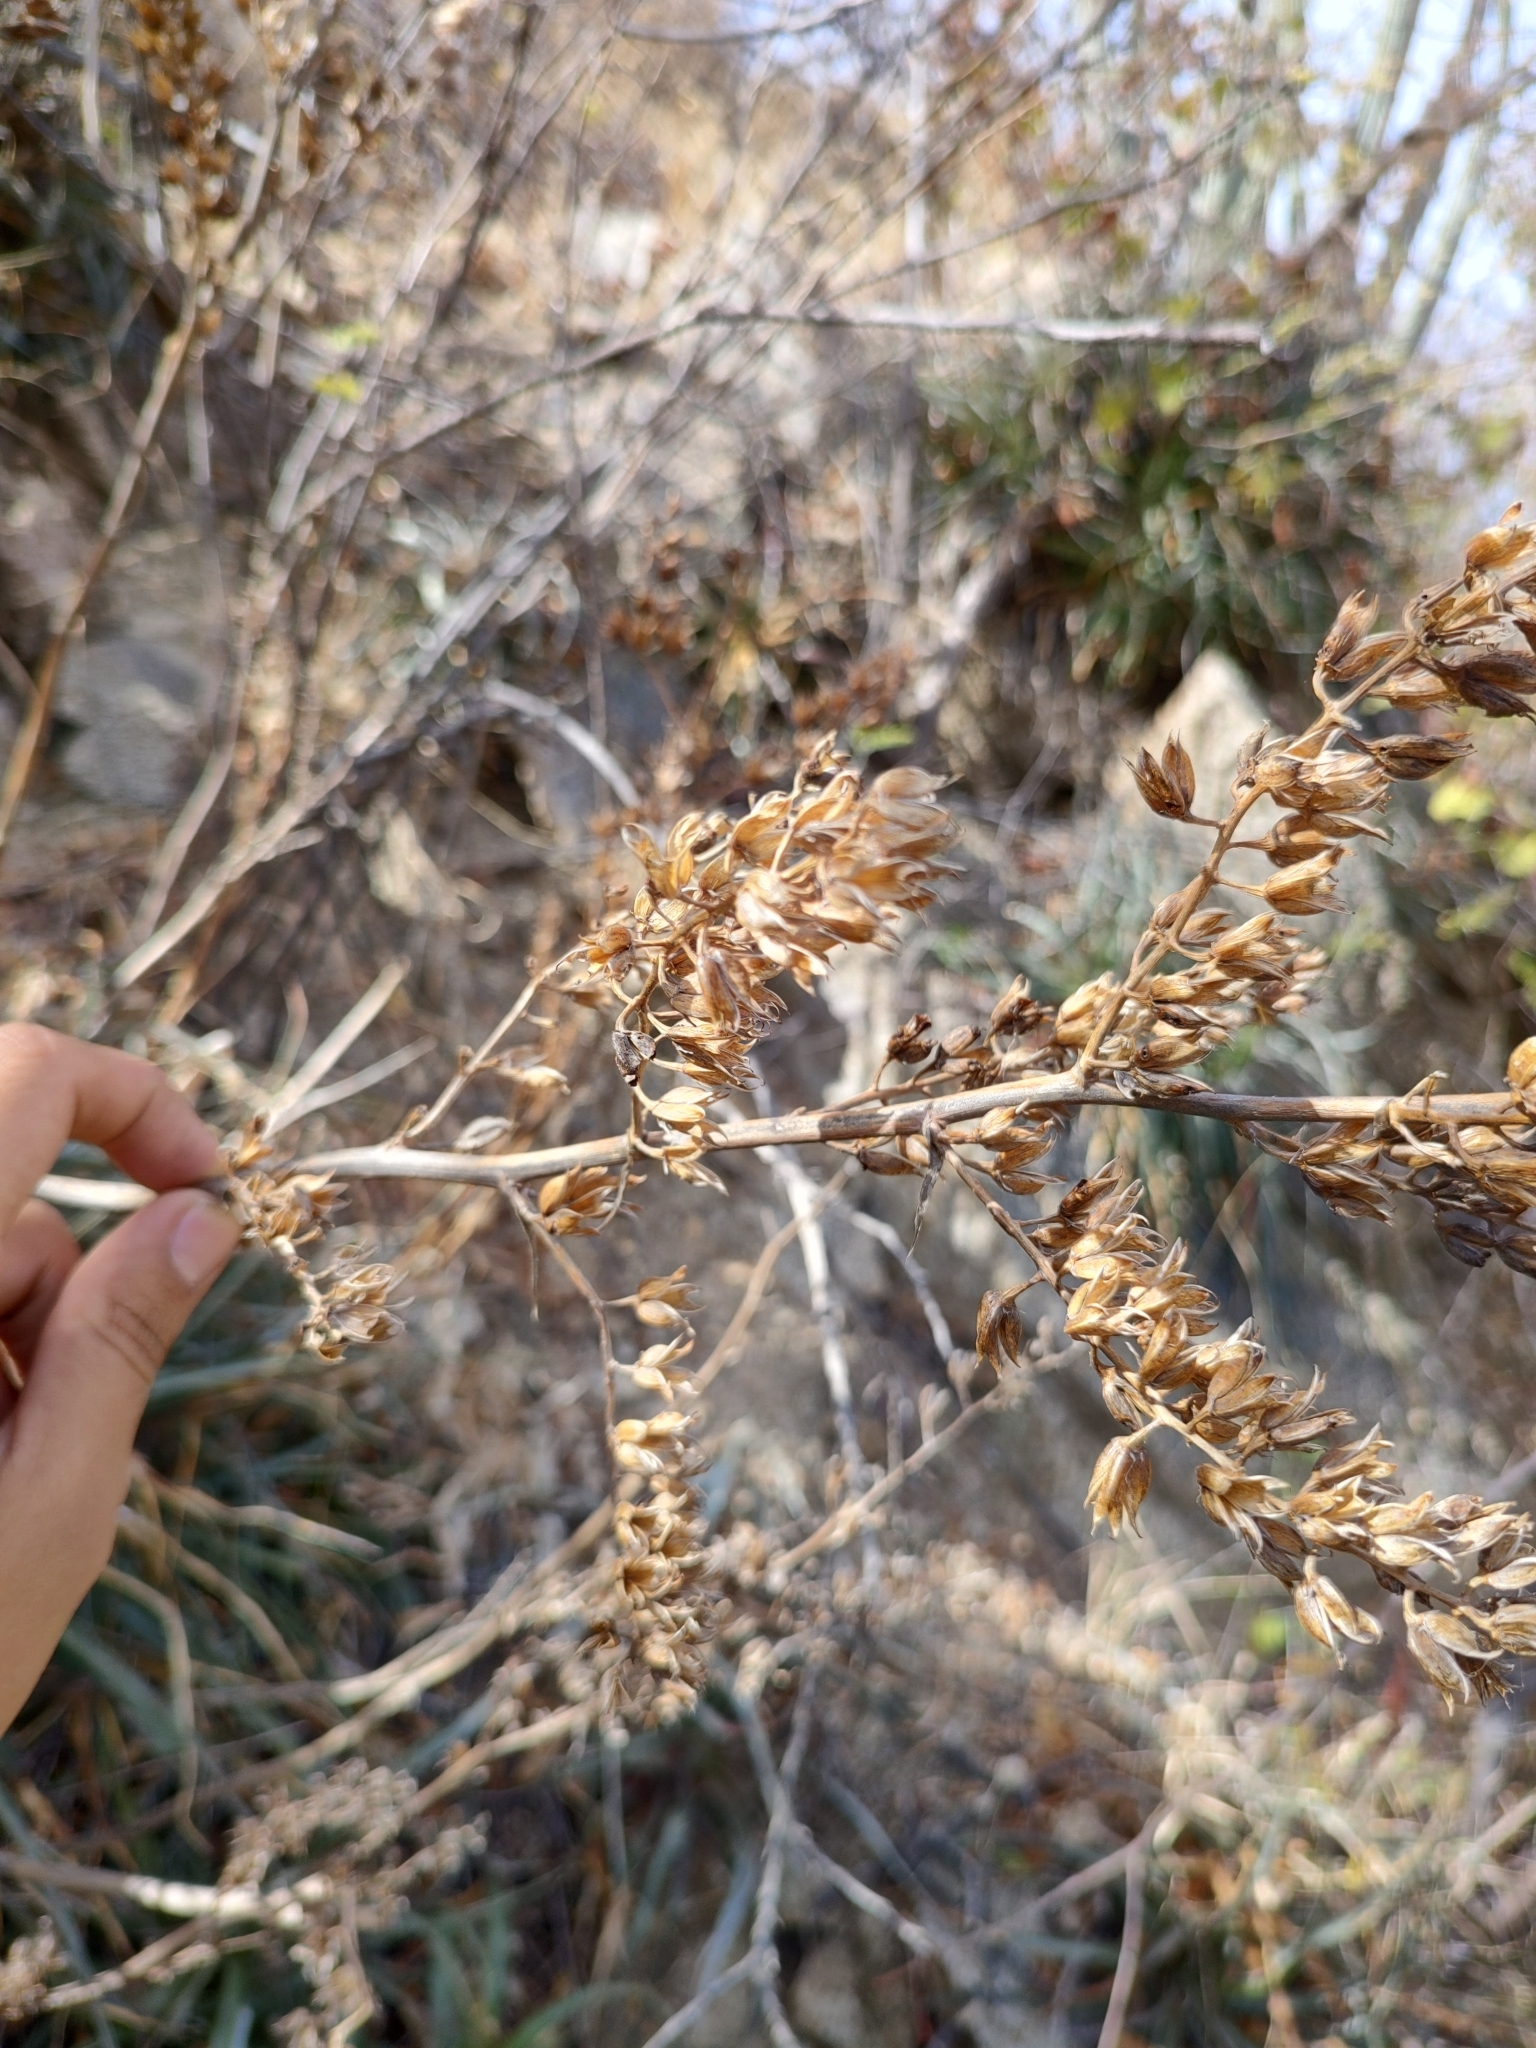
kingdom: Plantae
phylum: Tracheophyta
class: Liliopsida
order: Poales
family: Bromeliaceae
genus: Hechtia
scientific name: Hechtia montana
